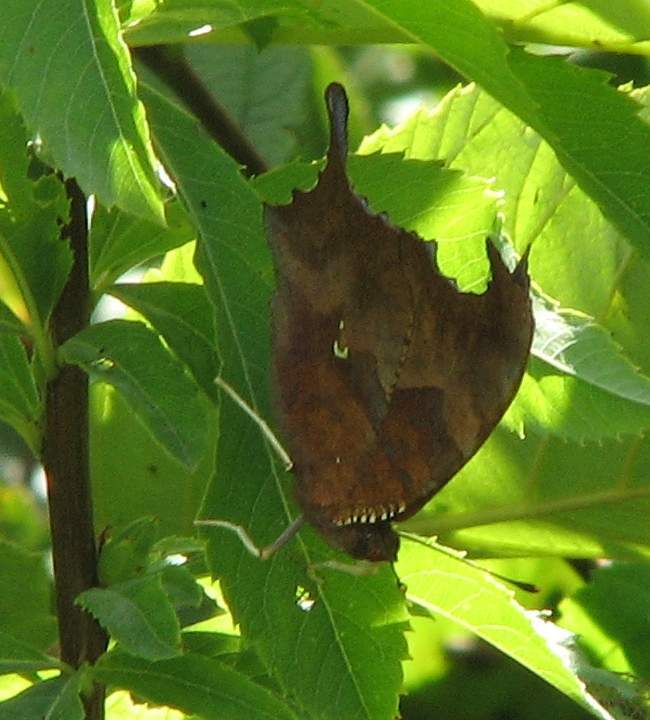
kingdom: Animalia
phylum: Arthropoda
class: Insecta
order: Lepidoptera
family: Nymphalidae
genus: Polygonia
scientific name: Polygonia interrogationis
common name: Question mark
